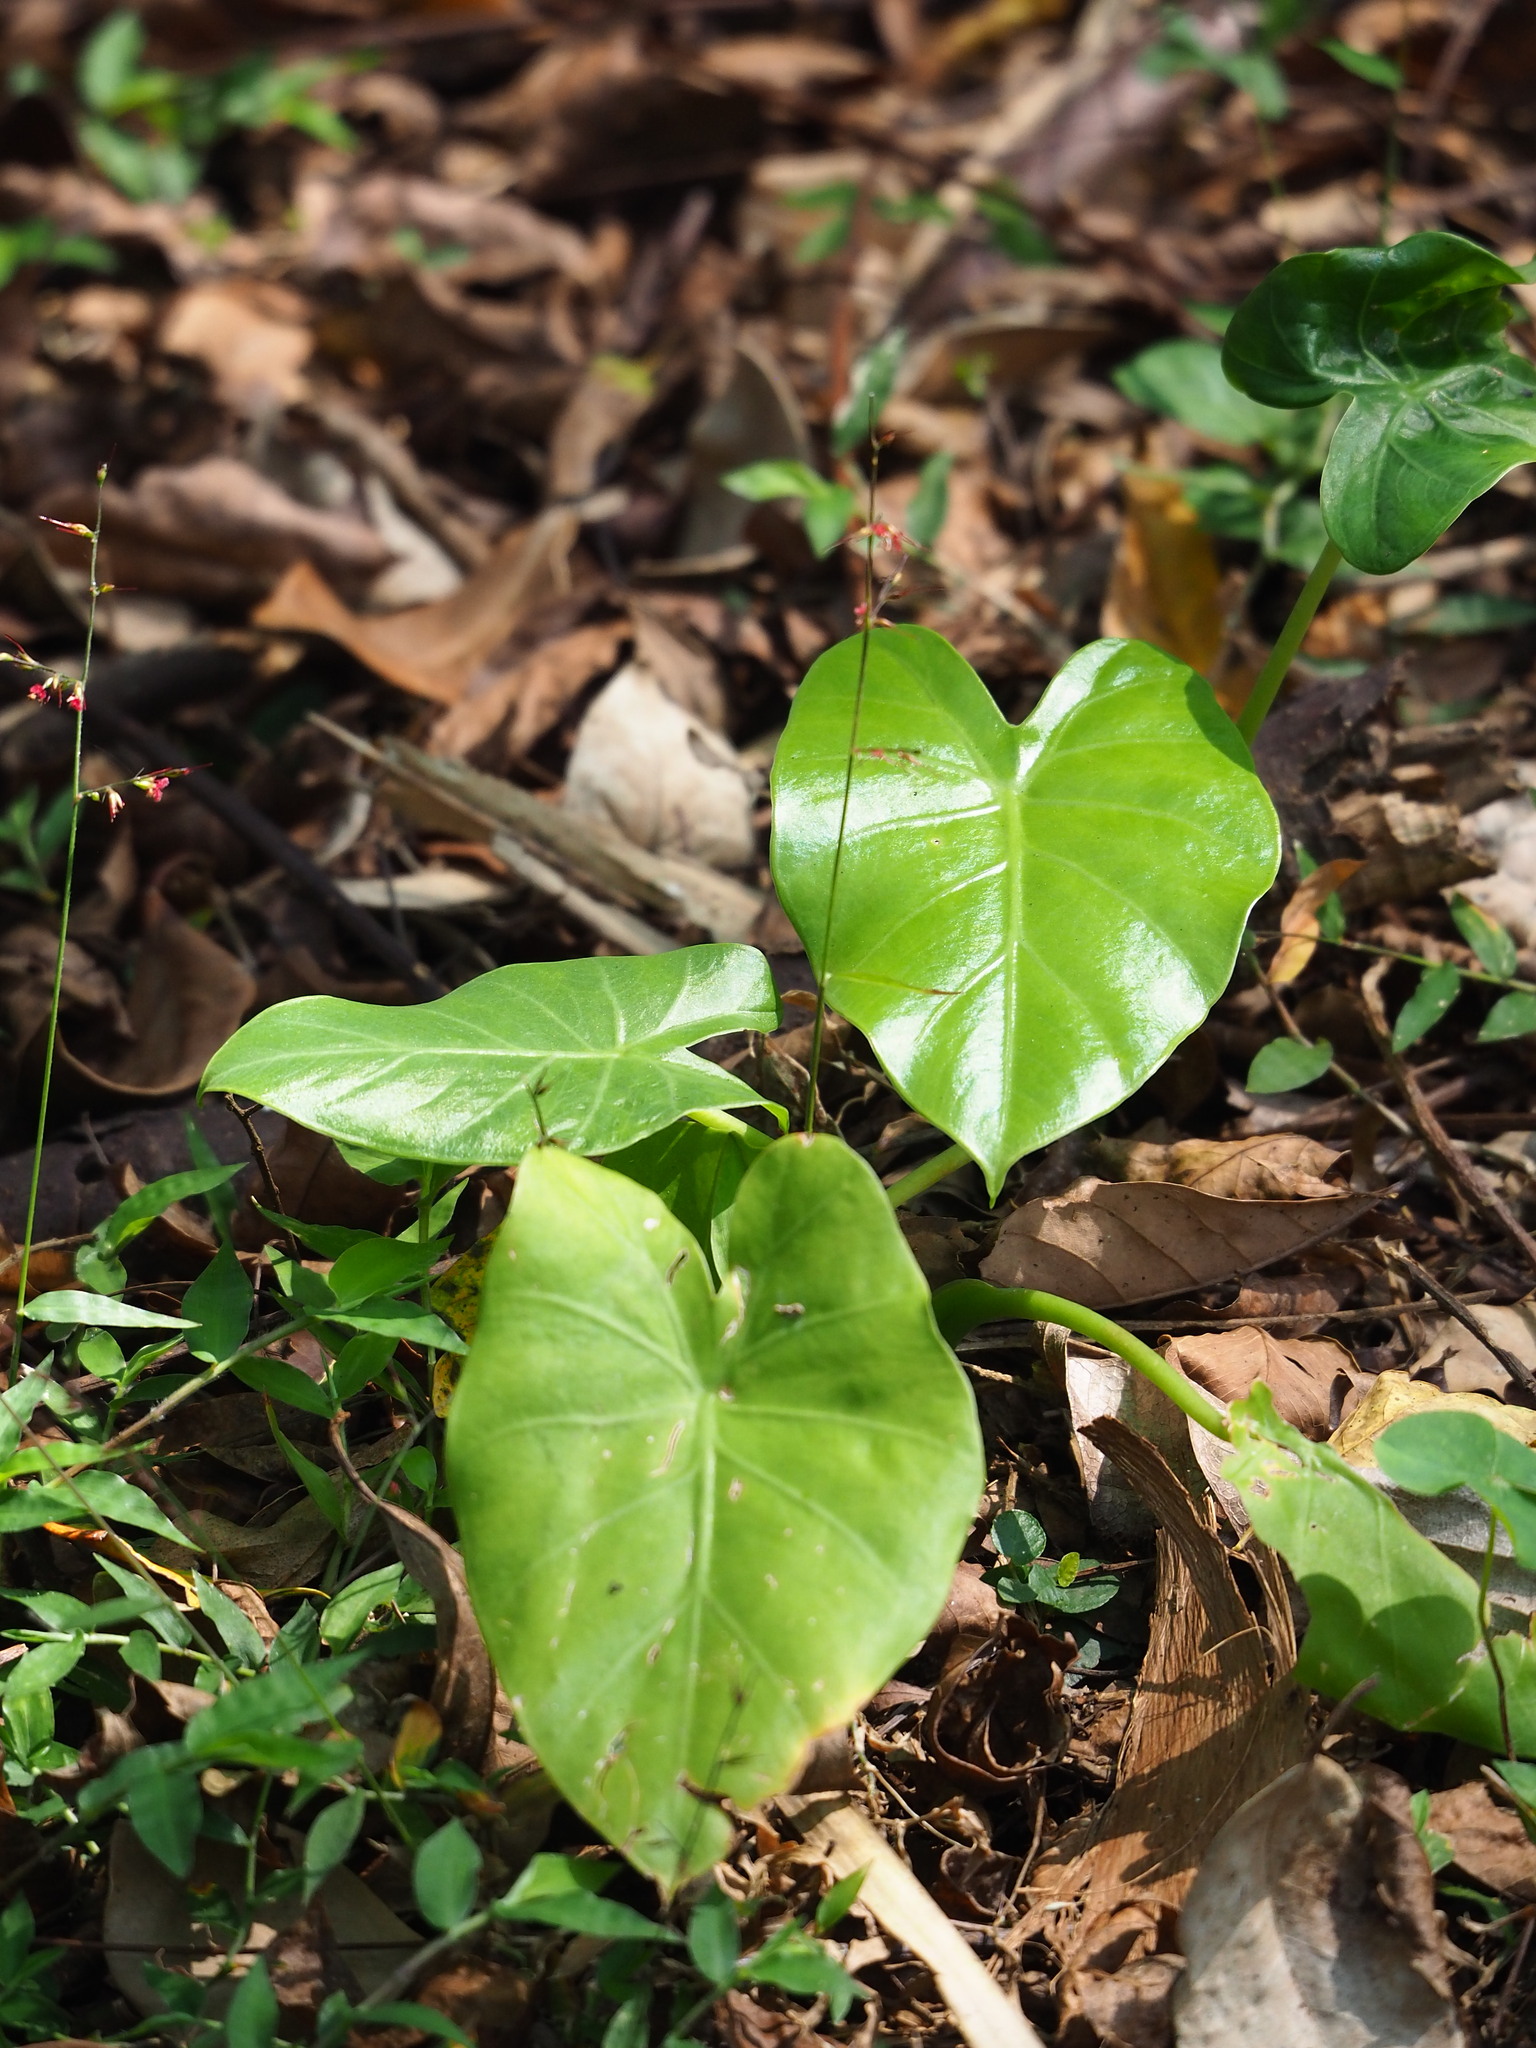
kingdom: Plantae
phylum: Tracheophyta
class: Liliopsida
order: Alismatales
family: Araceae
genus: Alocasia
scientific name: Alocasia odora
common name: Asian taro
